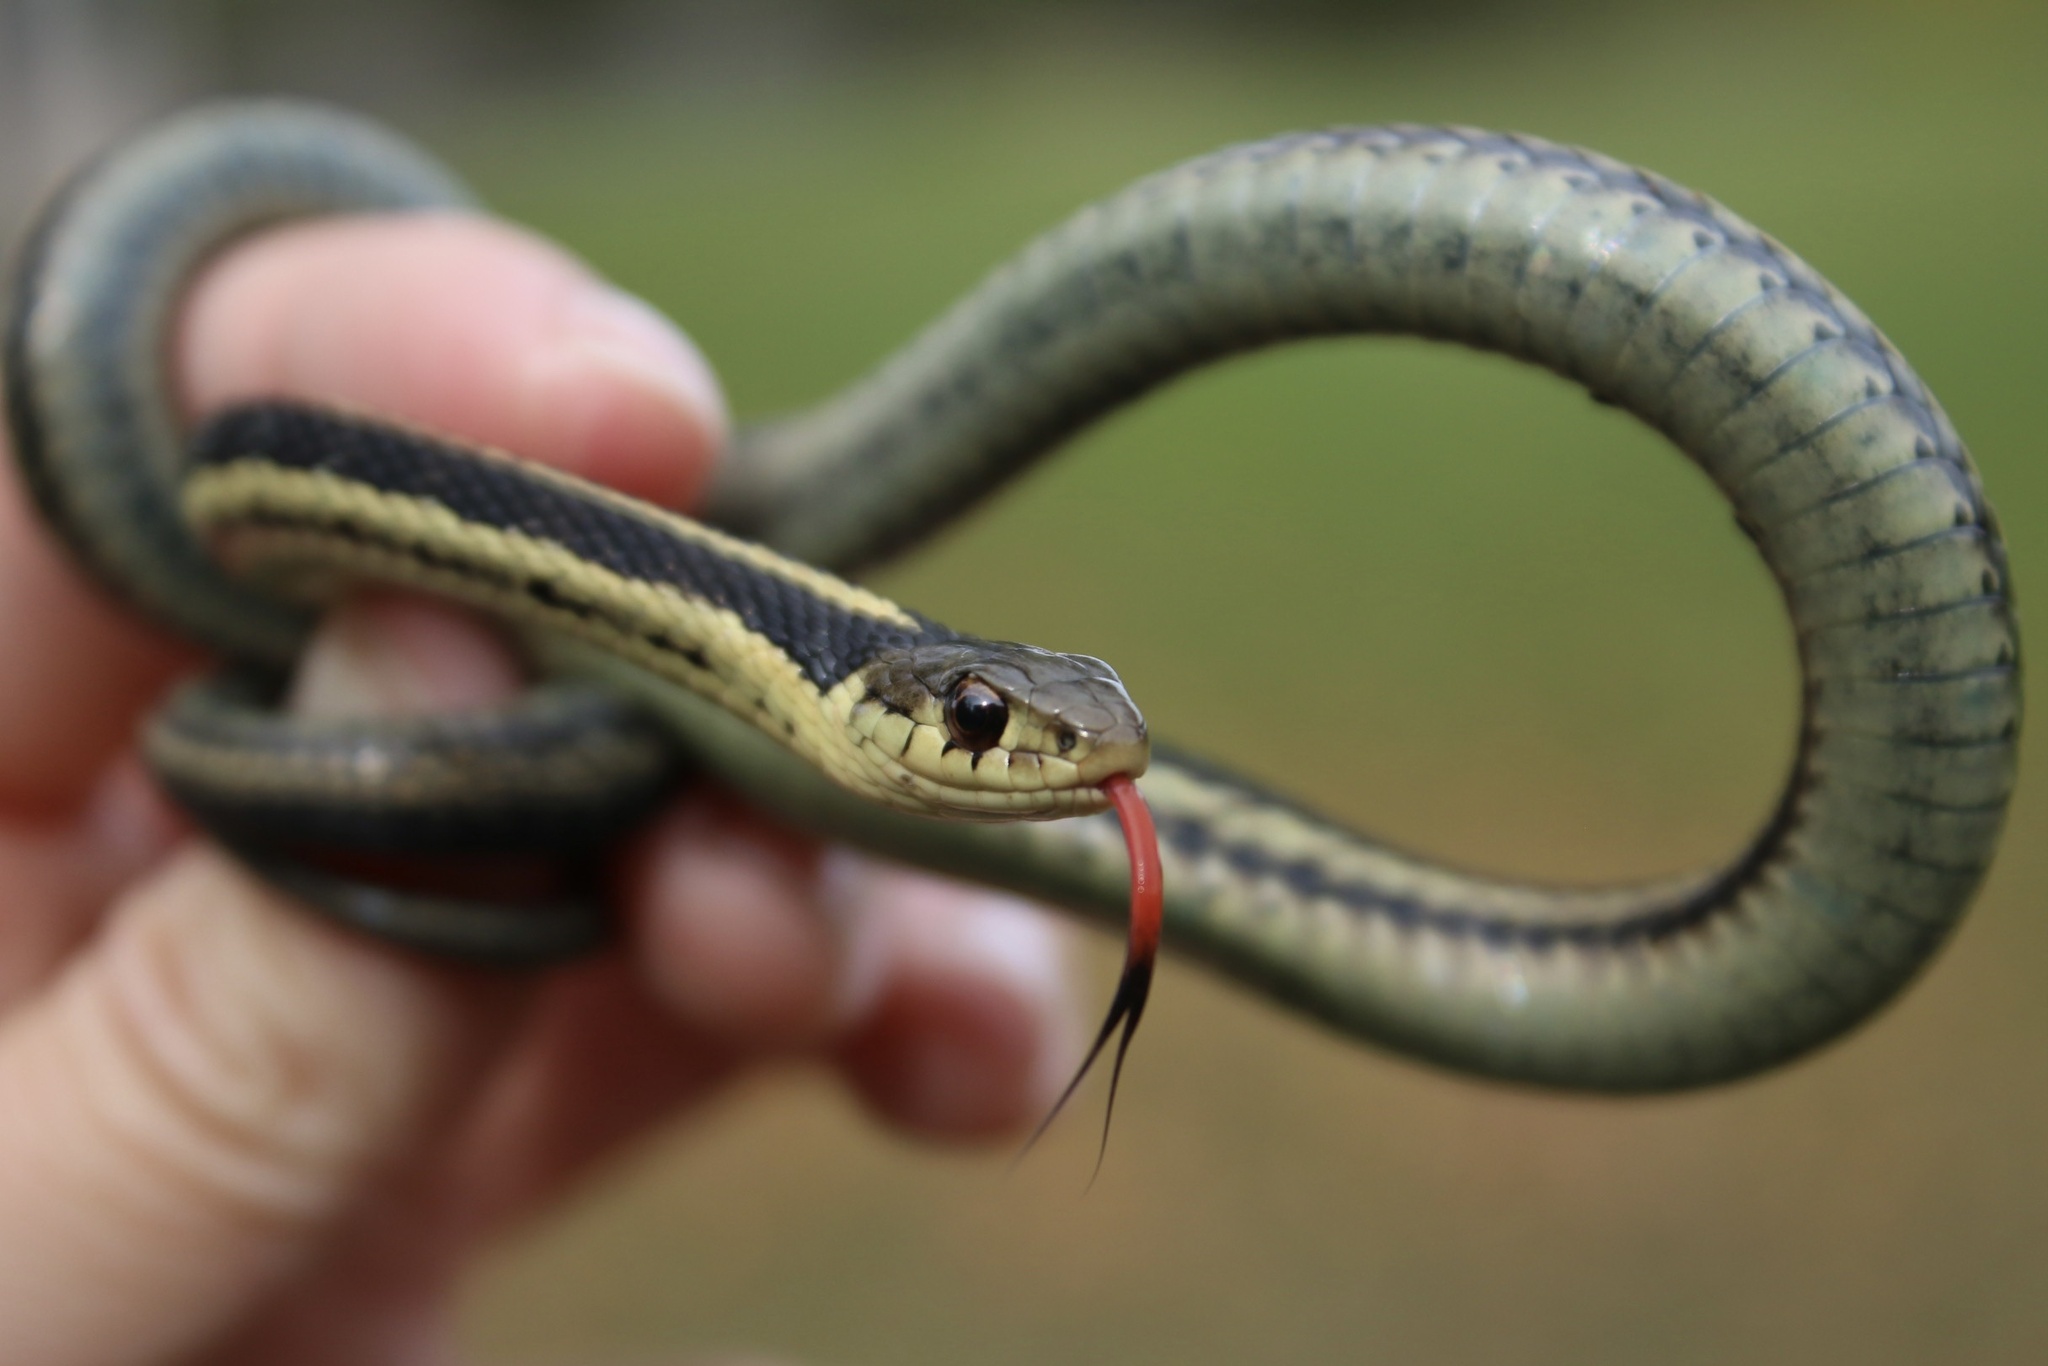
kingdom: Animalia
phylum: Chordata
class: Squamata
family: Colubridae
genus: Thamnophis
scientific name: Thamnophis sirtalis
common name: Common garter snake
